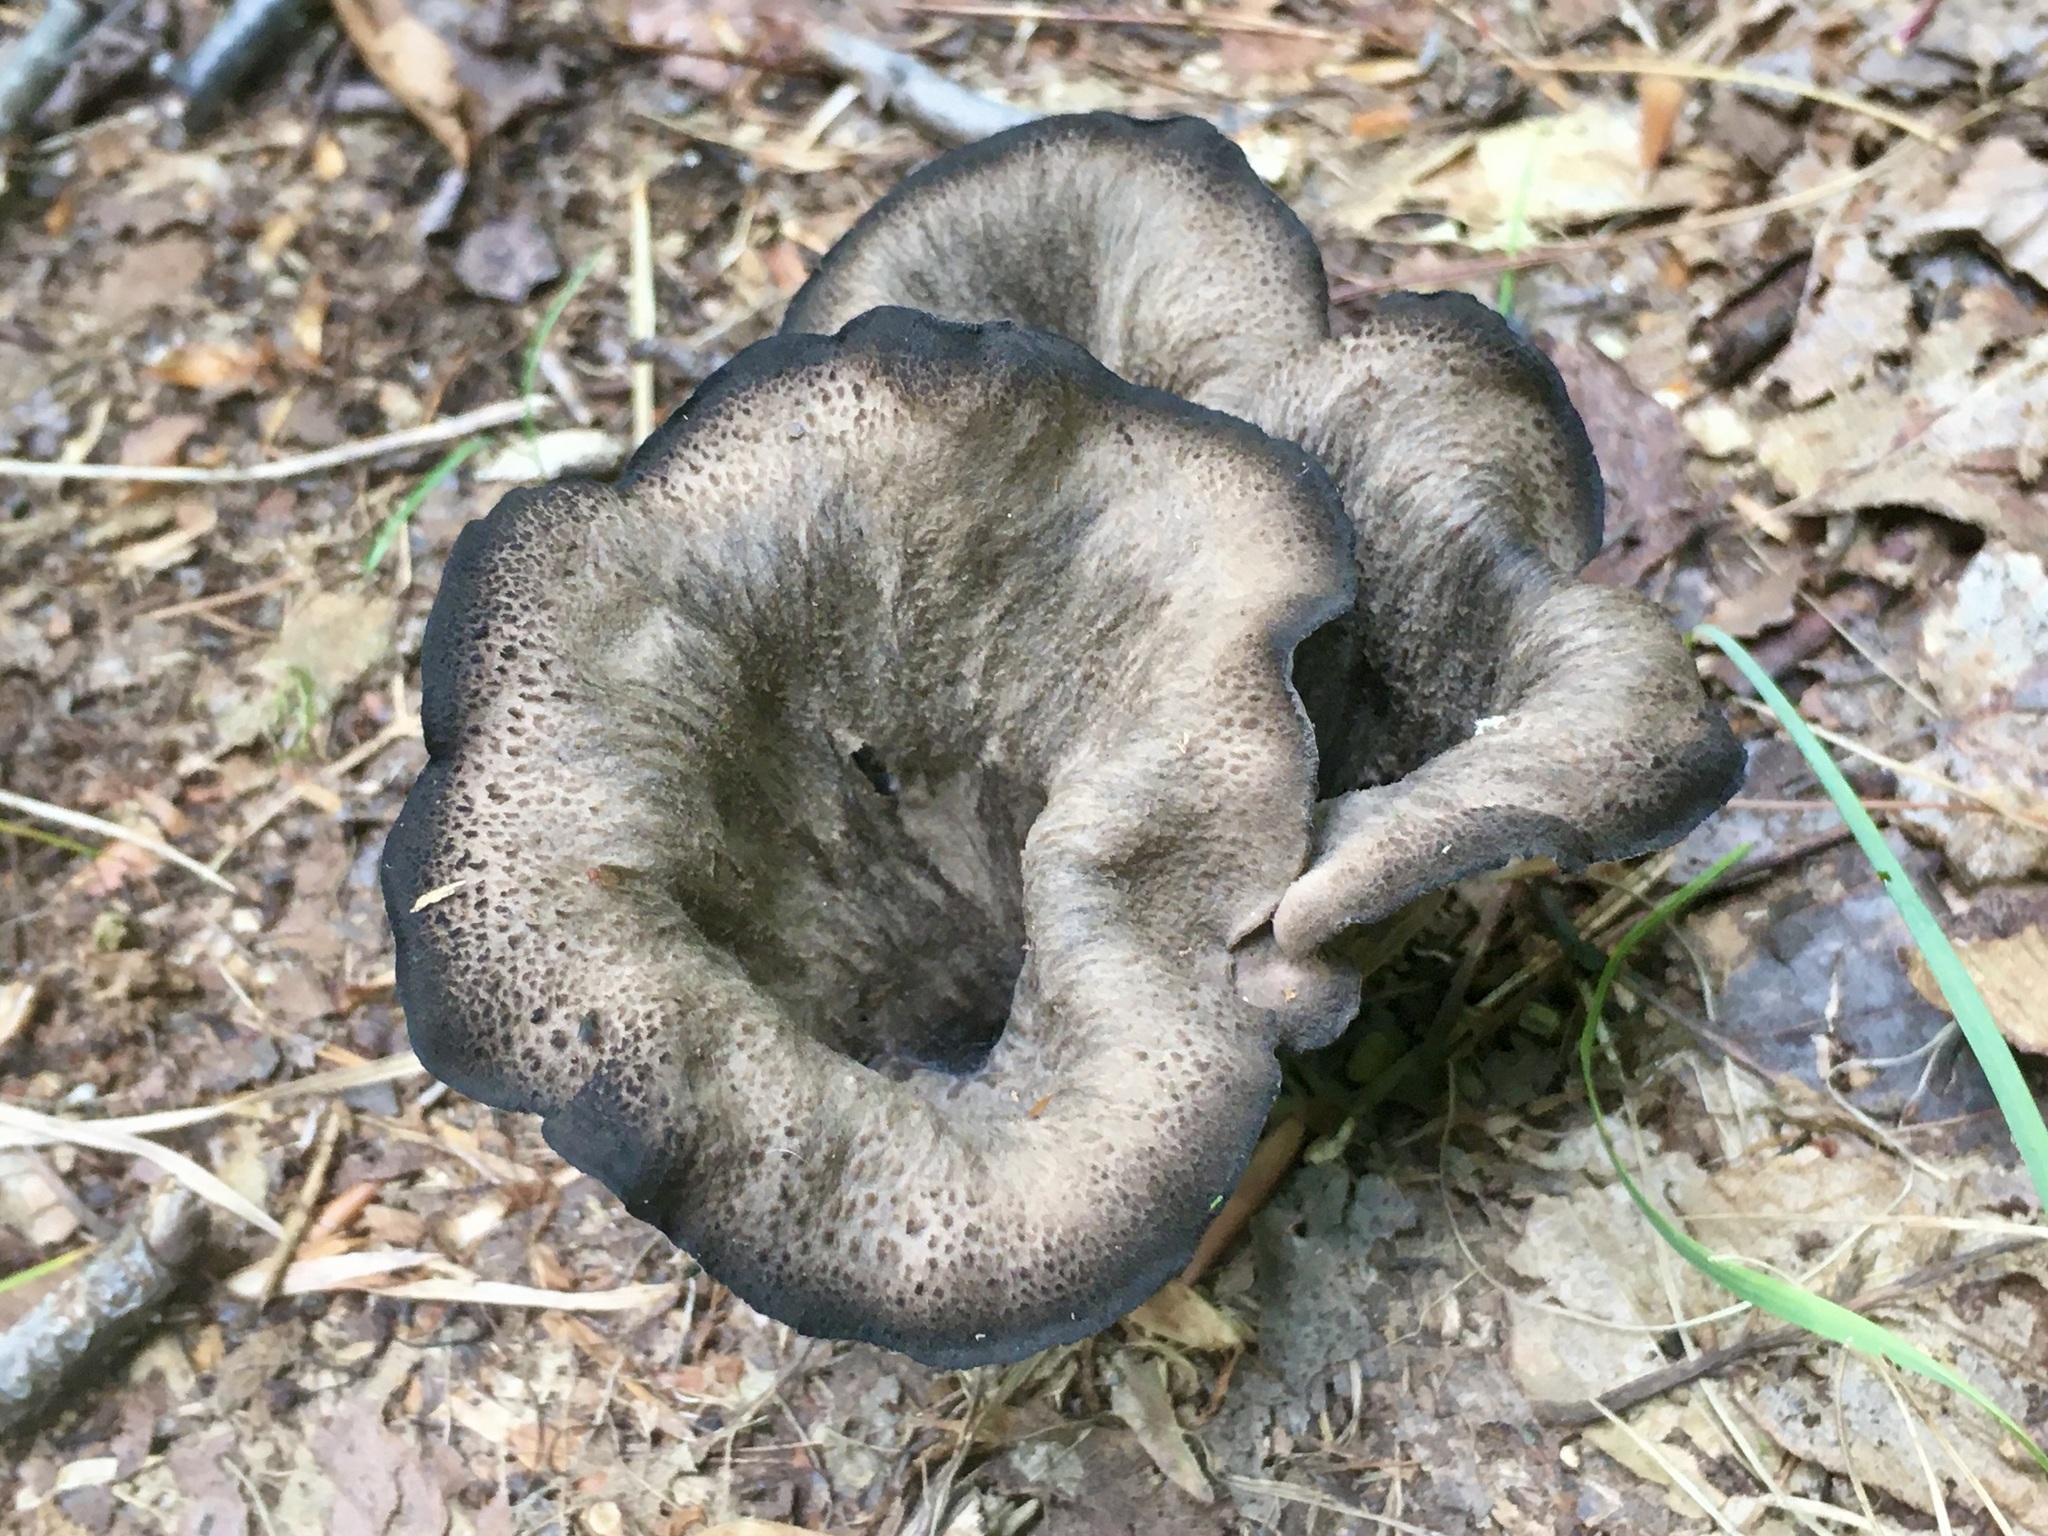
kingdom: Fungi
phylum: Basidiomycota
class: Agaricomycetes
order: Cantharellales
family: Hydnaceae
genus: Craterellus
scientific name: Craterellus cornucopioides
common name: Horn of plenty
